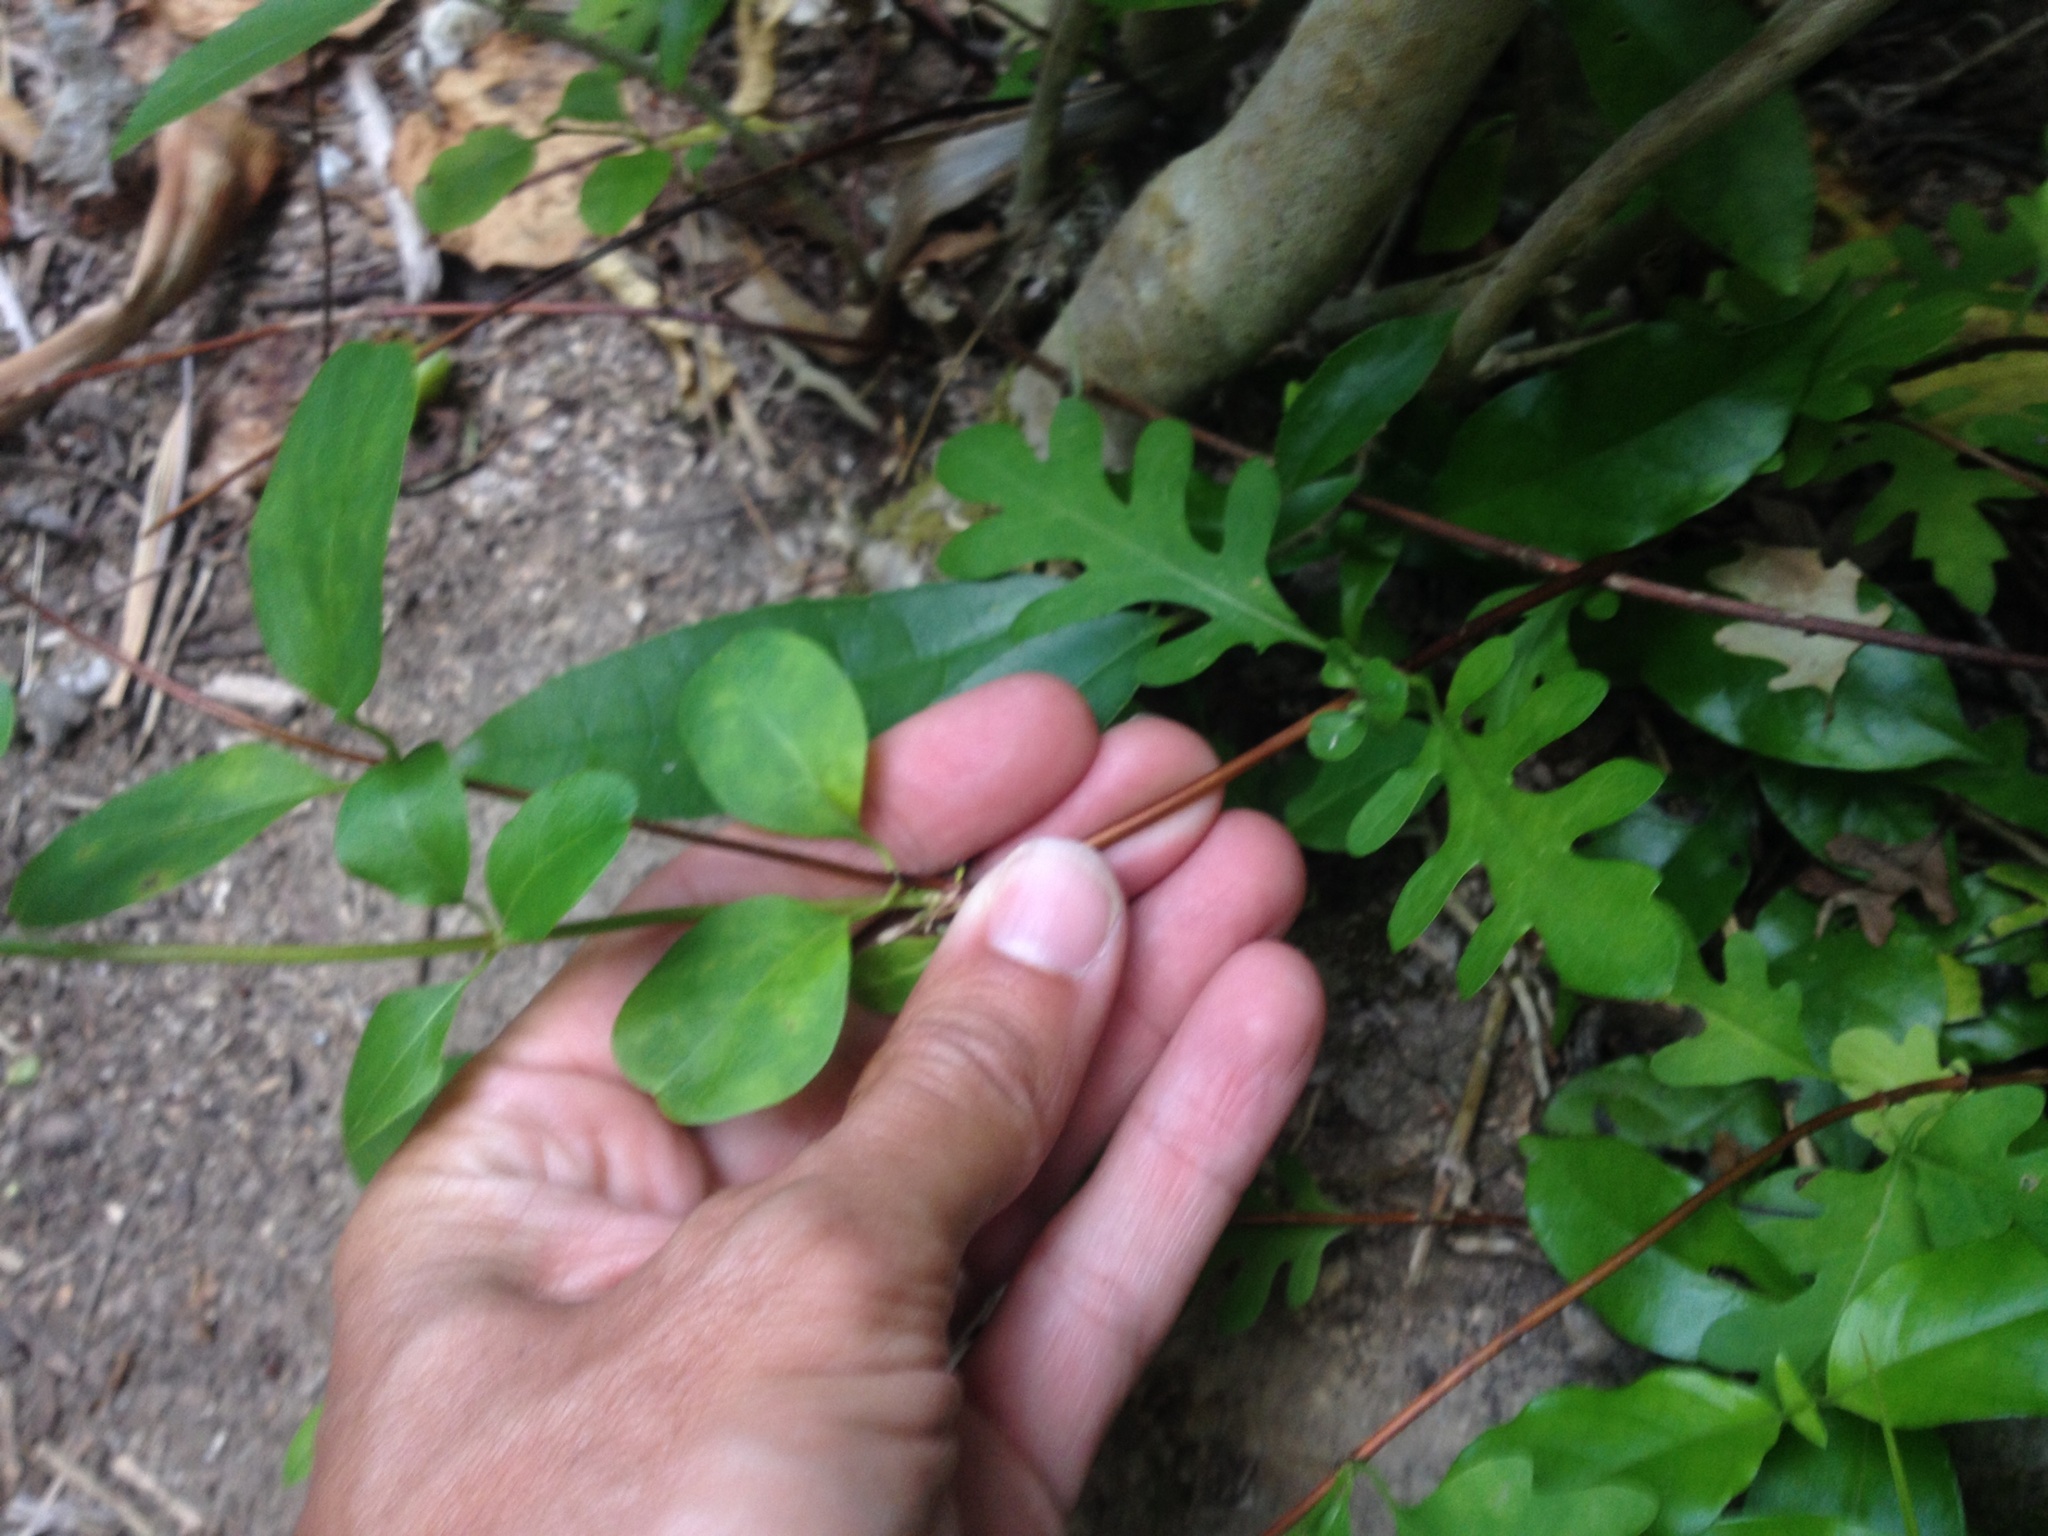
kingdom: Plantae
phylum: Tracheophyta
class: Magnoliopsida
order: Dipsacales
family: Caprifoliaceae
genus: Lonicera
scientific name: Lonicera japonica
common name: Japanese honeysuckle
